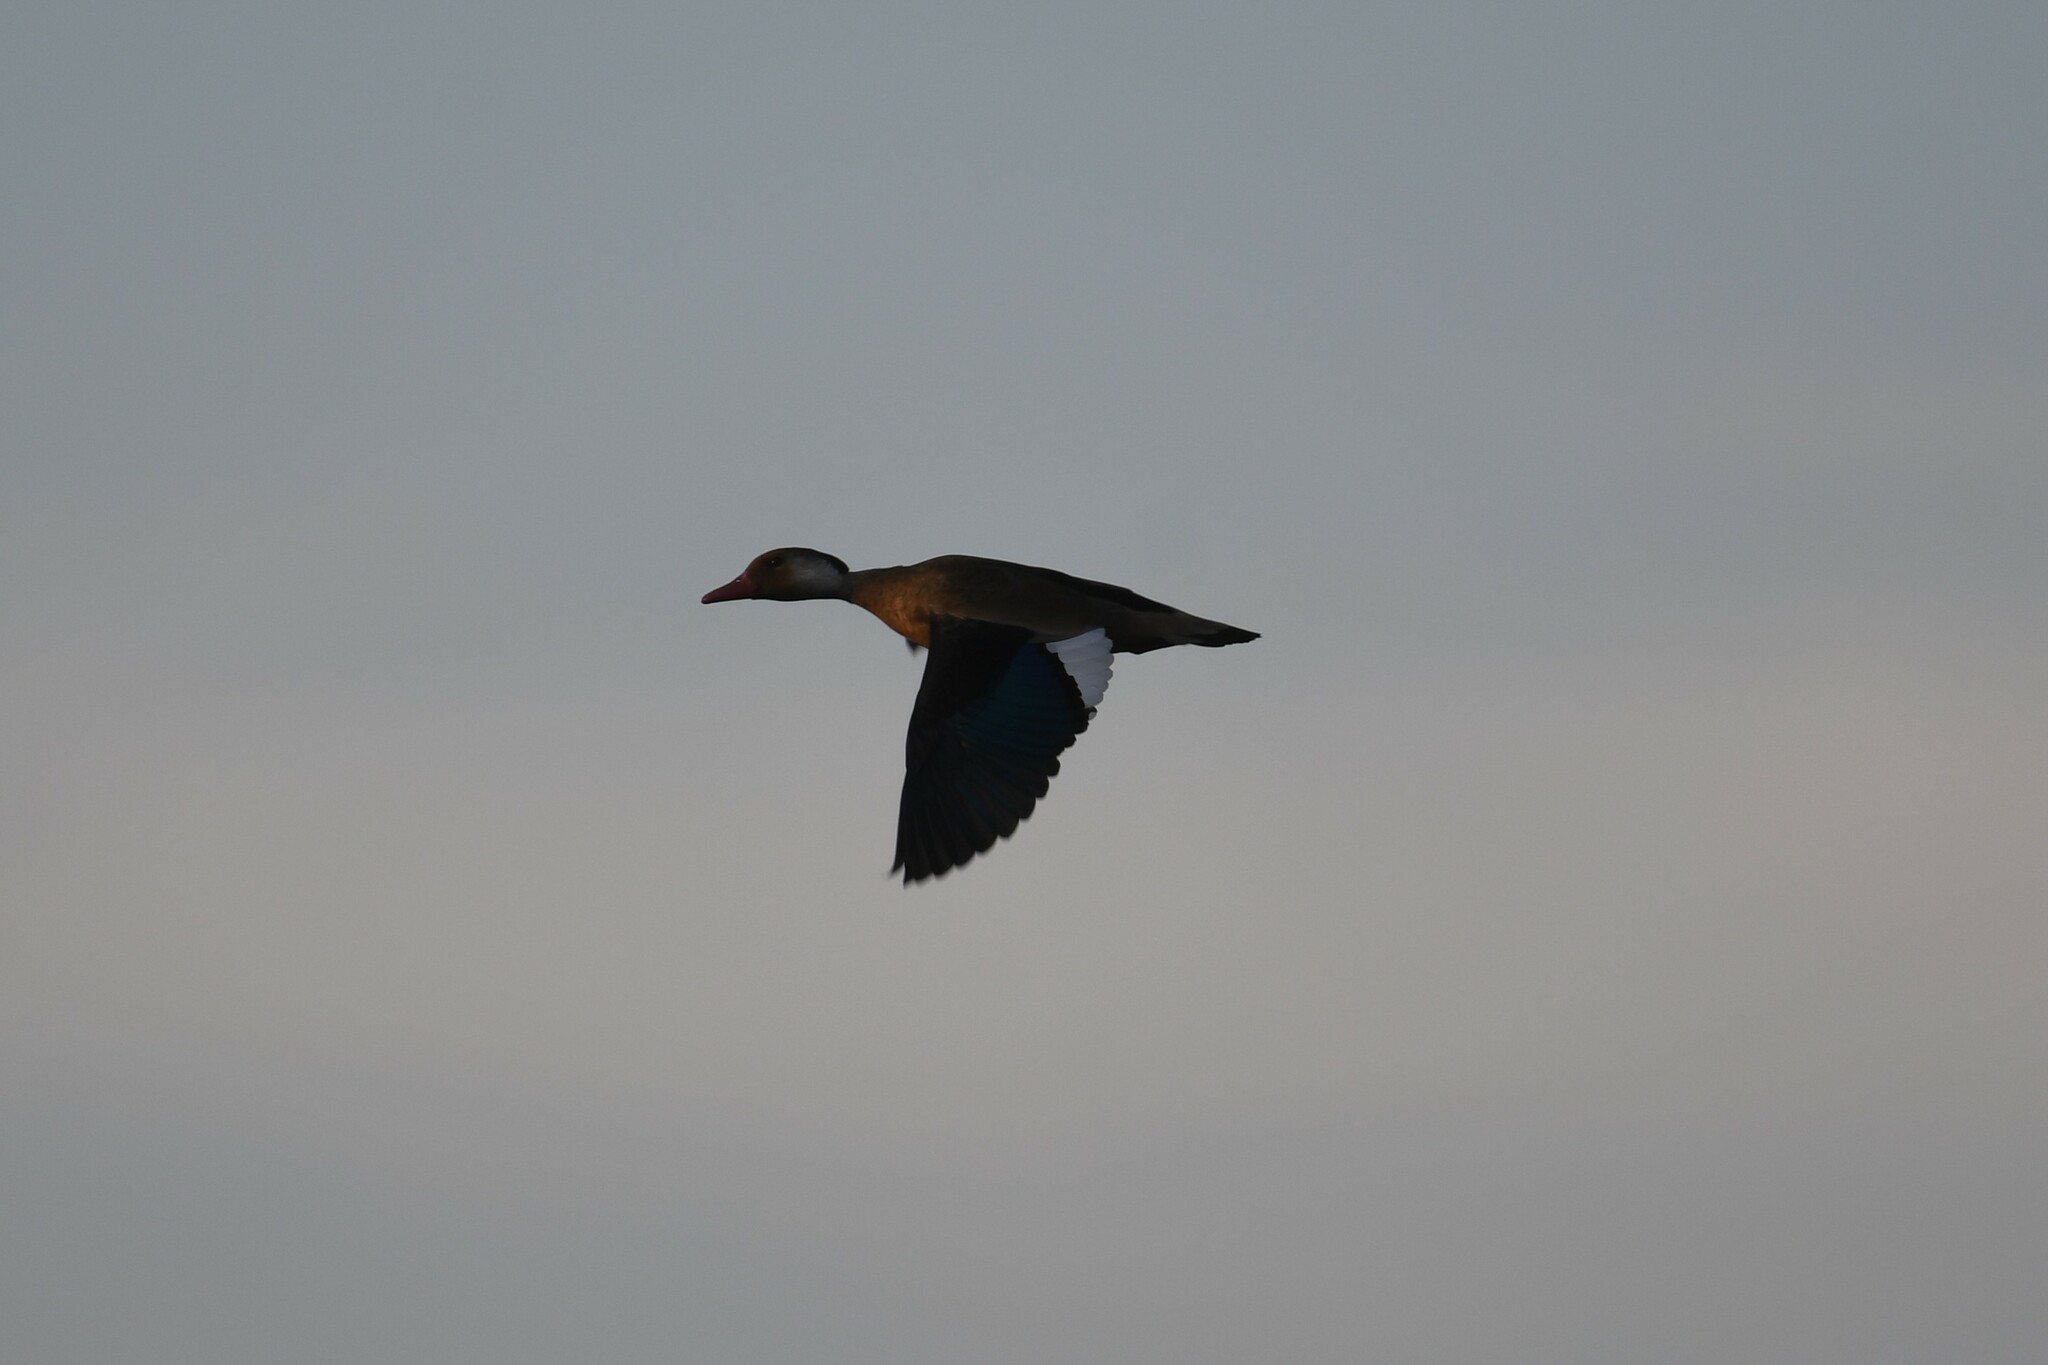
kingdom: Animalia
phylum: Chordata
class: Aves
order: Anseriformes
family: Anatidae
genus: Amazonetta
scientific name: Amazonetta brasiliensis
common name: Brazilian teal
